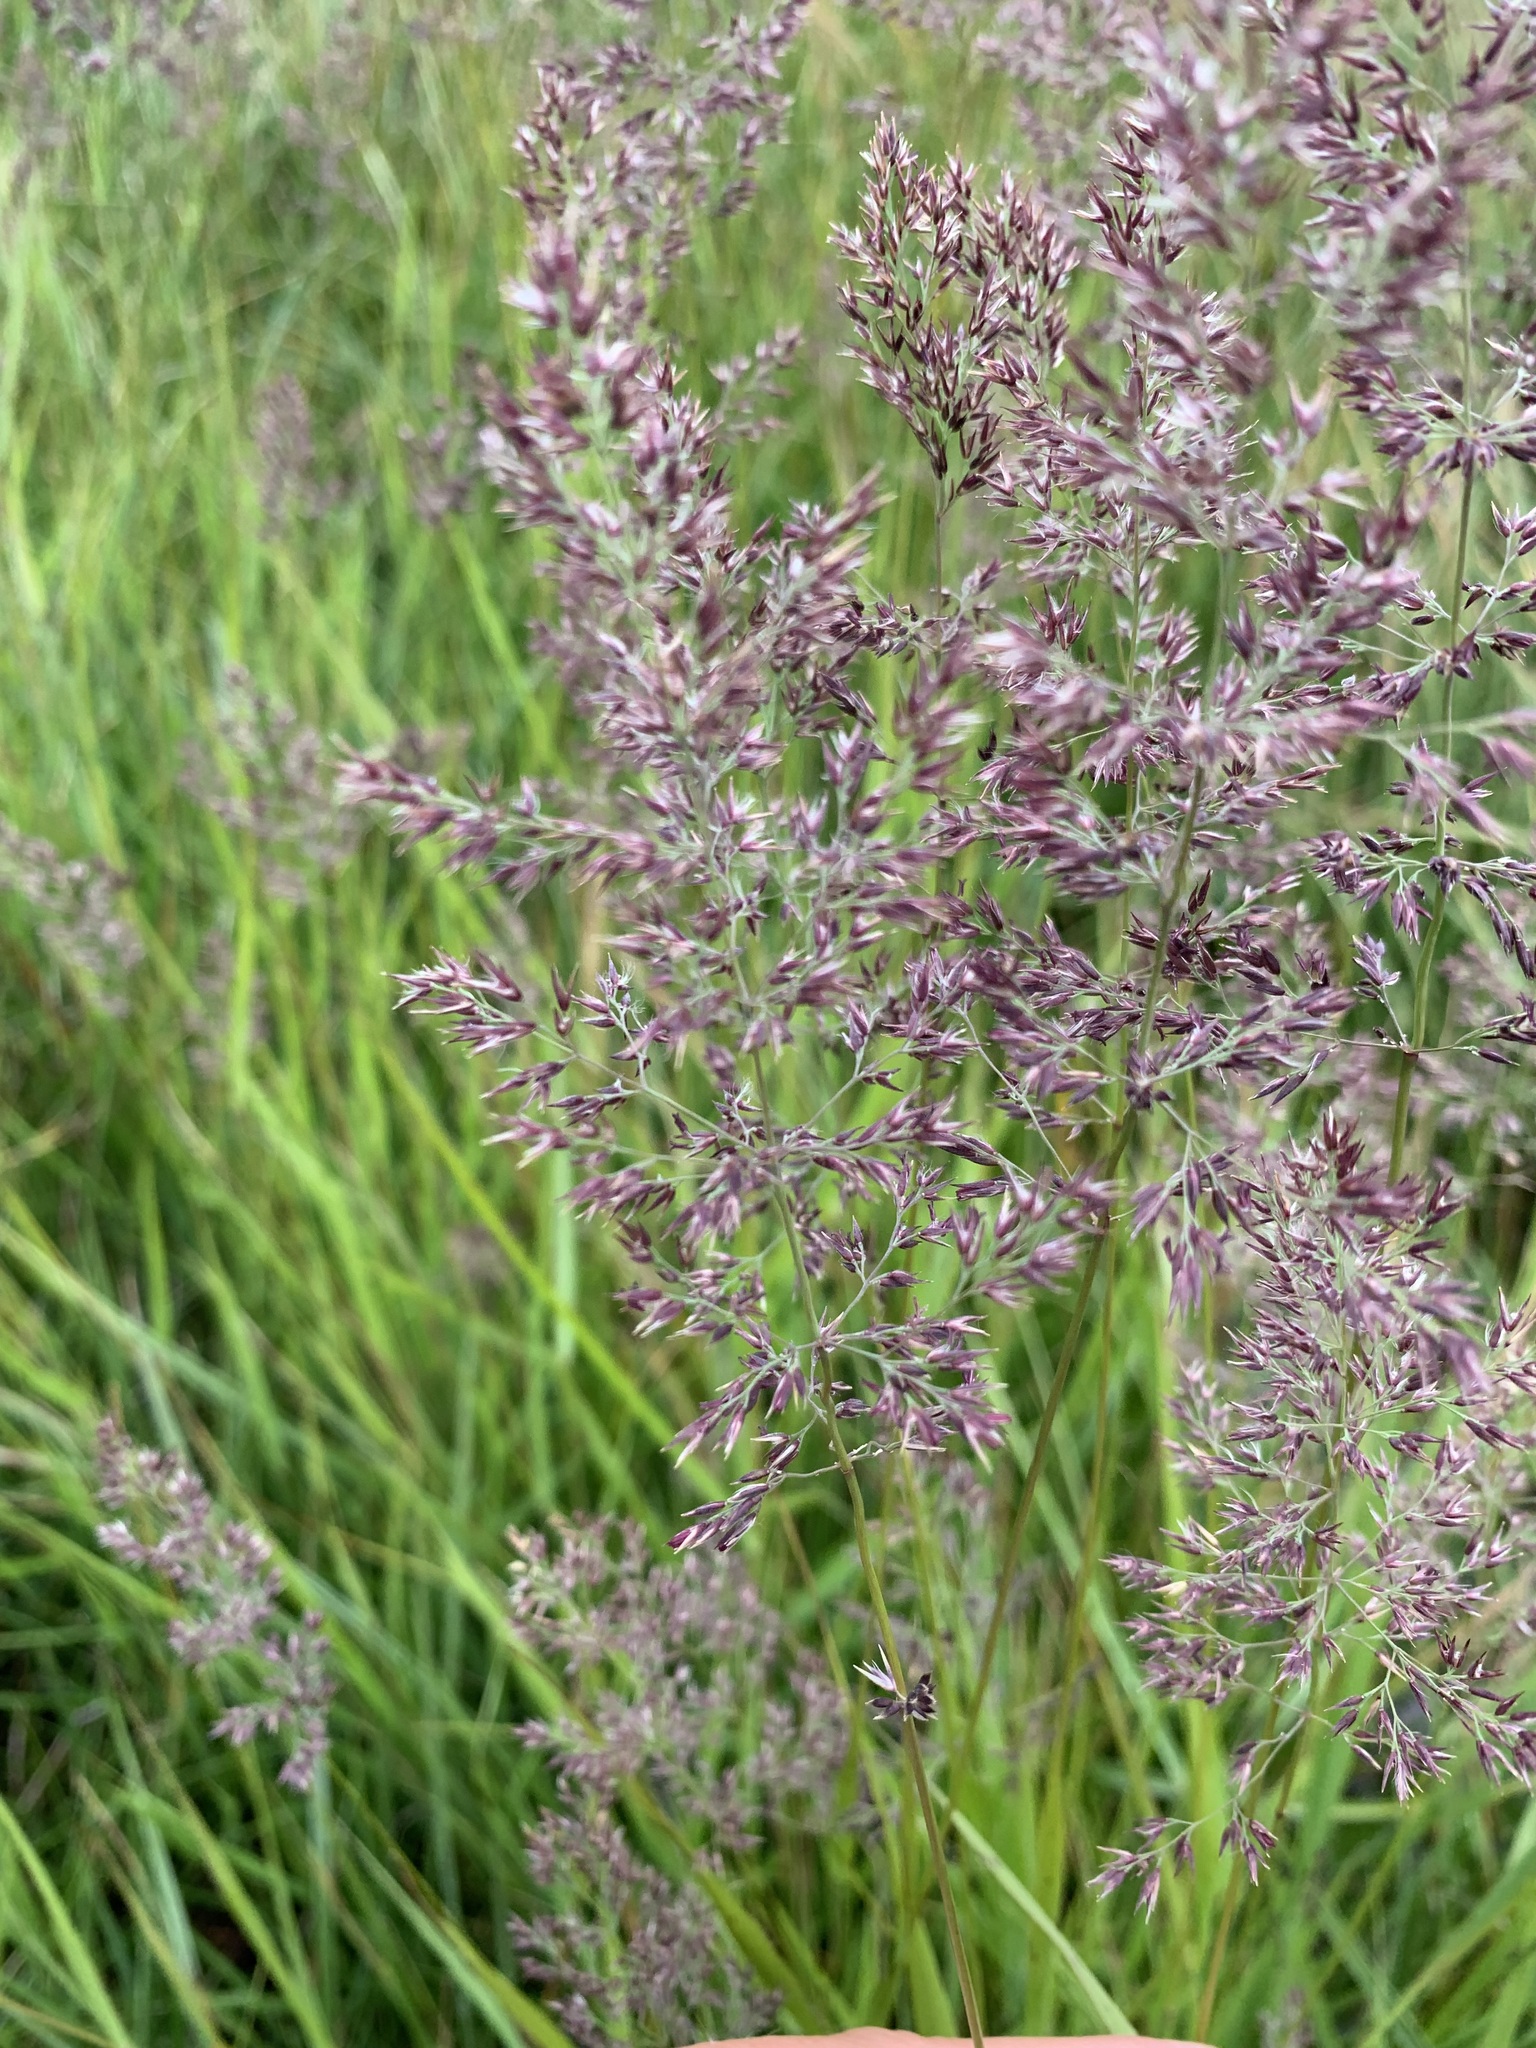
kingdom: Plantae
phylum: Tracheophyta
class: Liliopsida
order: Poales
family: Poaceae
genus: Calamagrostis
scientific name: Calamagrostis purpurea
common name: Scandinavian small-reed
